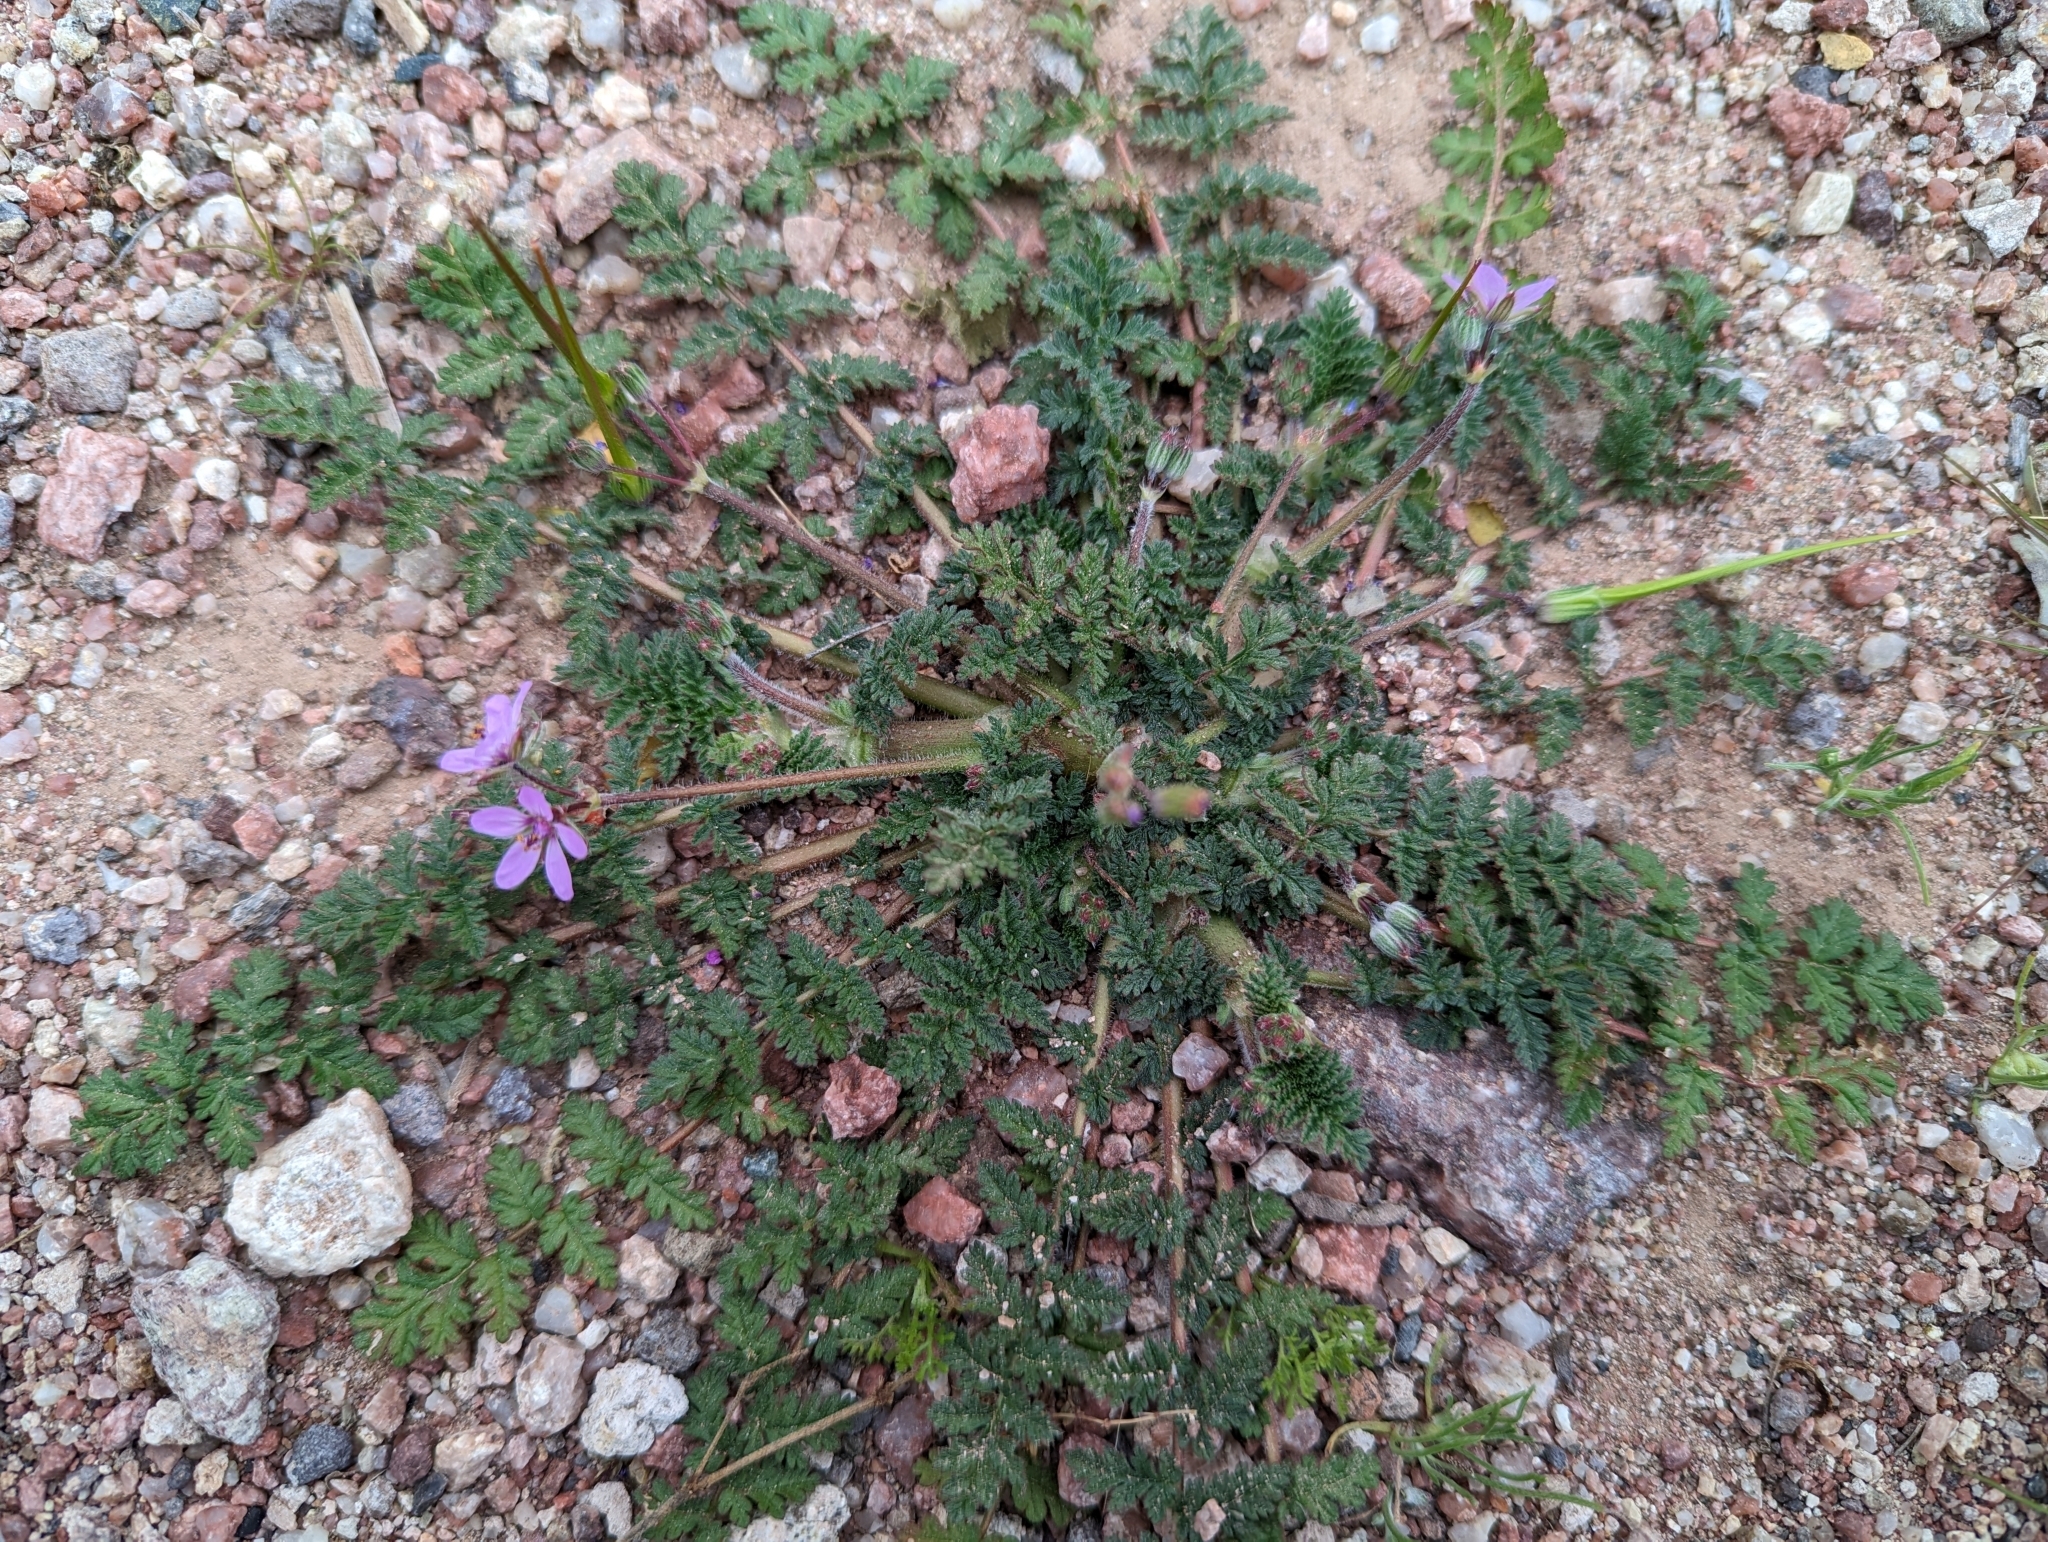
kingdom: Plantae
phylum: Tracheophyta
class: Magnoliopsida
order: Geraniales
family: Geraniaceae
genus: Erodium
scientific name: Erodium cicutarium
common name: Common stork's-bill
